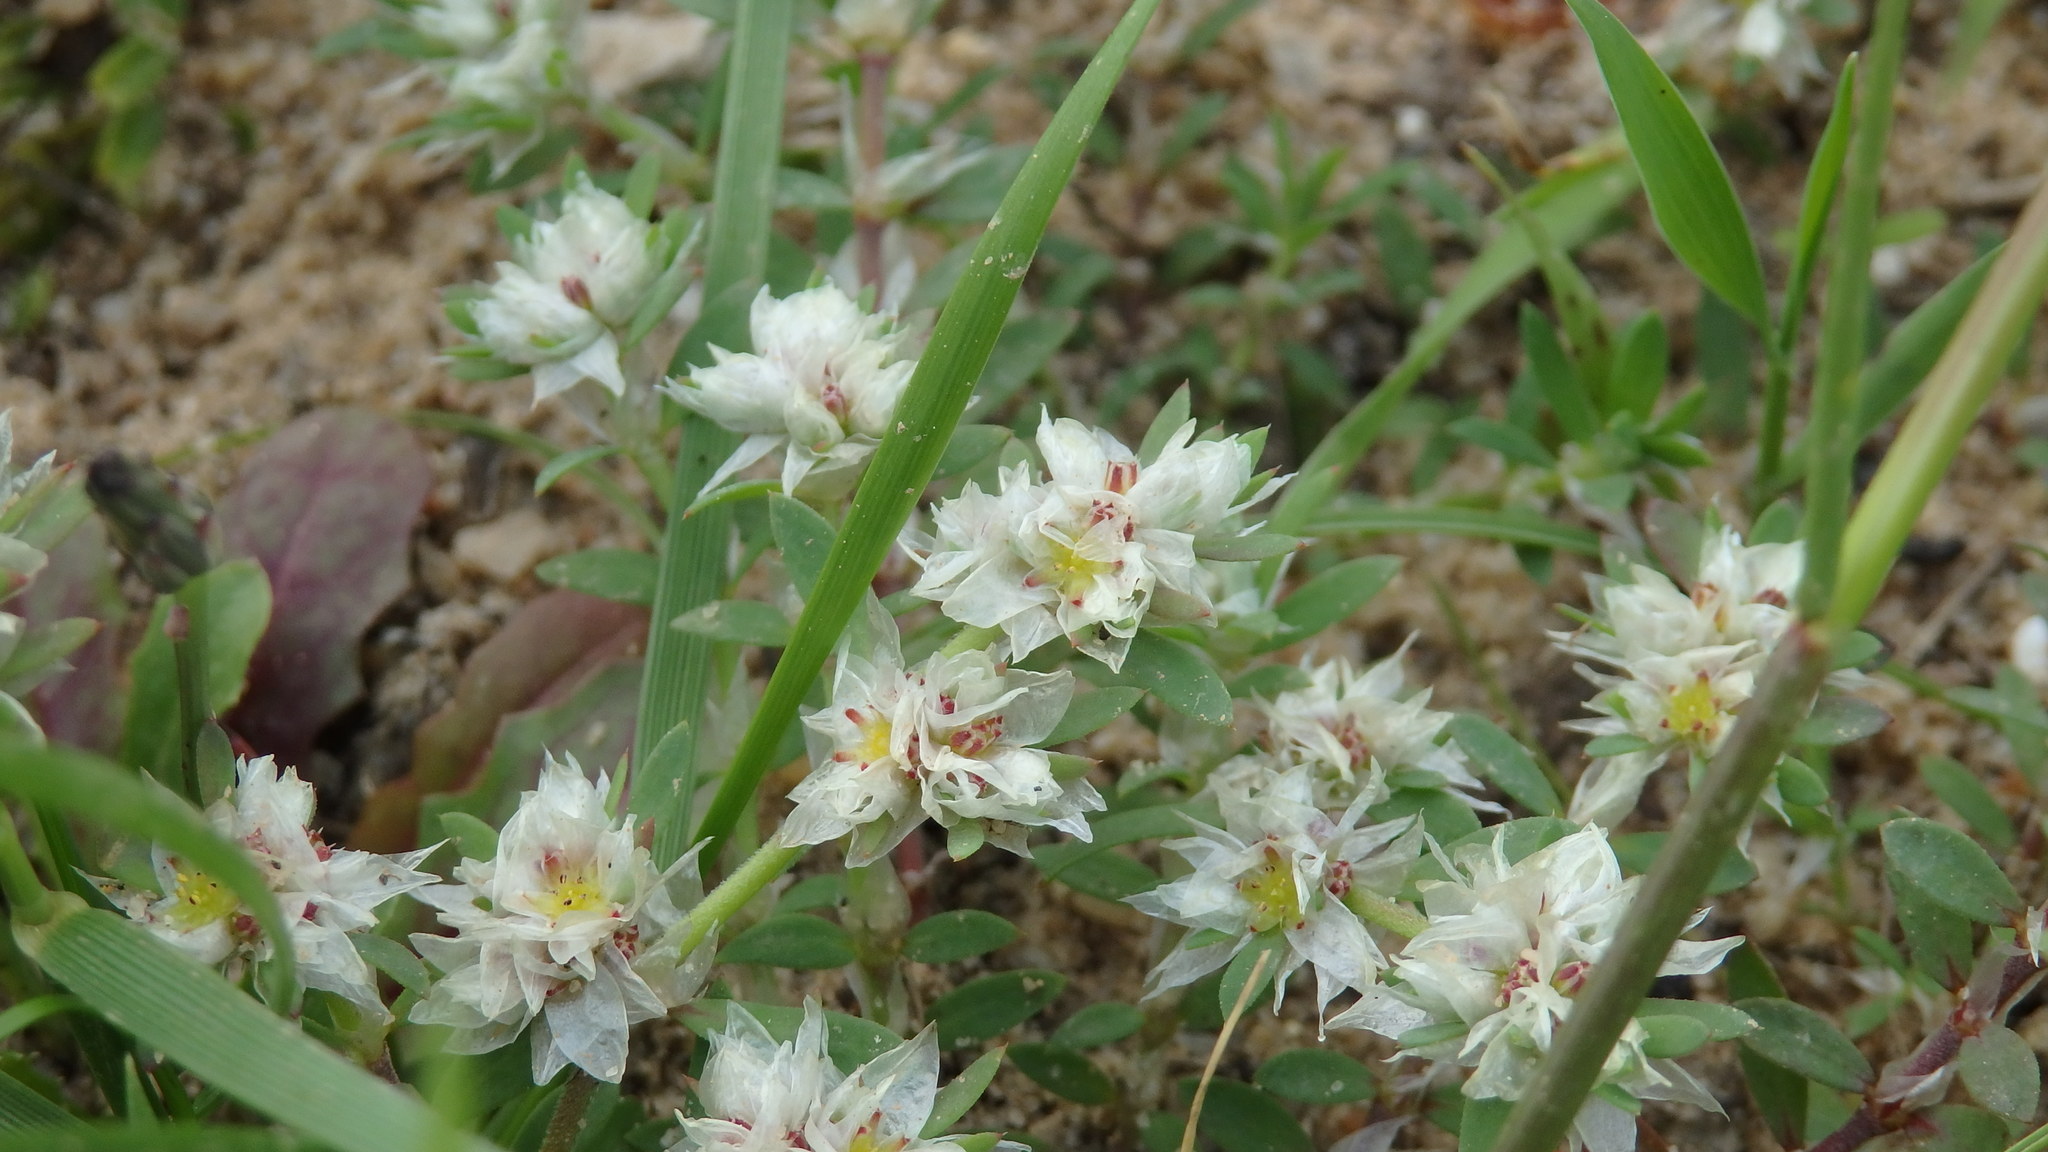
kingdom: Plantae
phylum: Tracheophyta
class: Magnoliopsida
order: Caryophyllales
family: Caryophyllaceae
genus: Paronychia
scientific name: Paronychia argentea
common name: Silver nailroot
